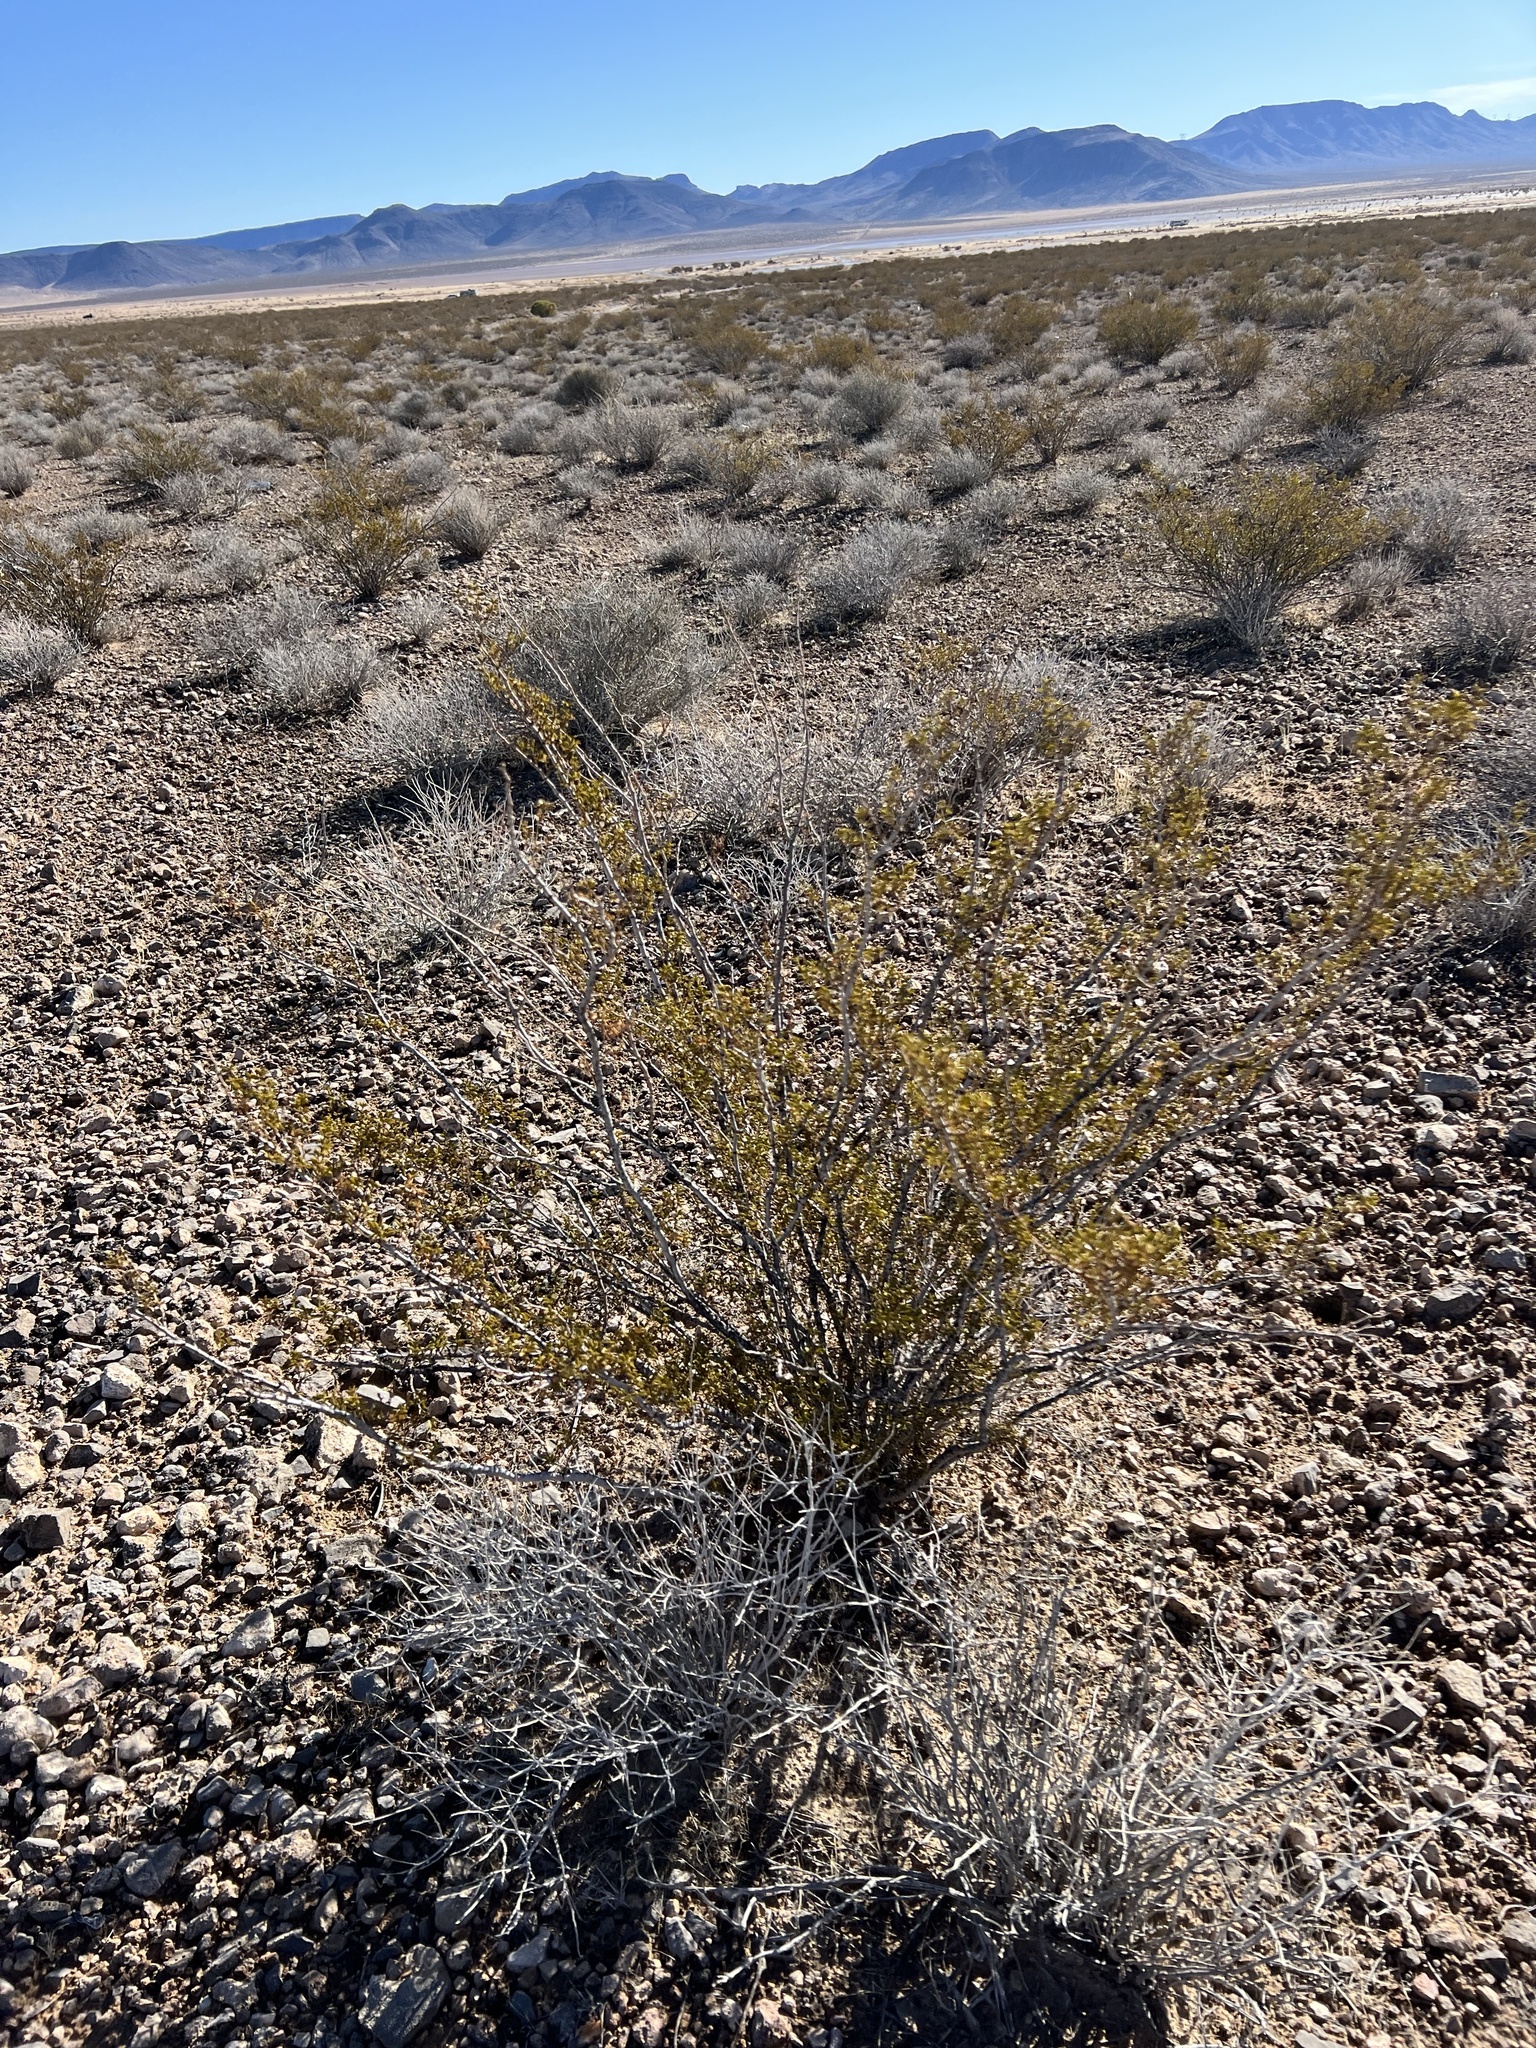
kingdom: Plantae
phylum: Tracheophyta
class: Magnoliopsida
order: Zygophyllales
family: Zygophyllaceae
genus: Larrea
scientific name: Larrea tridentata
